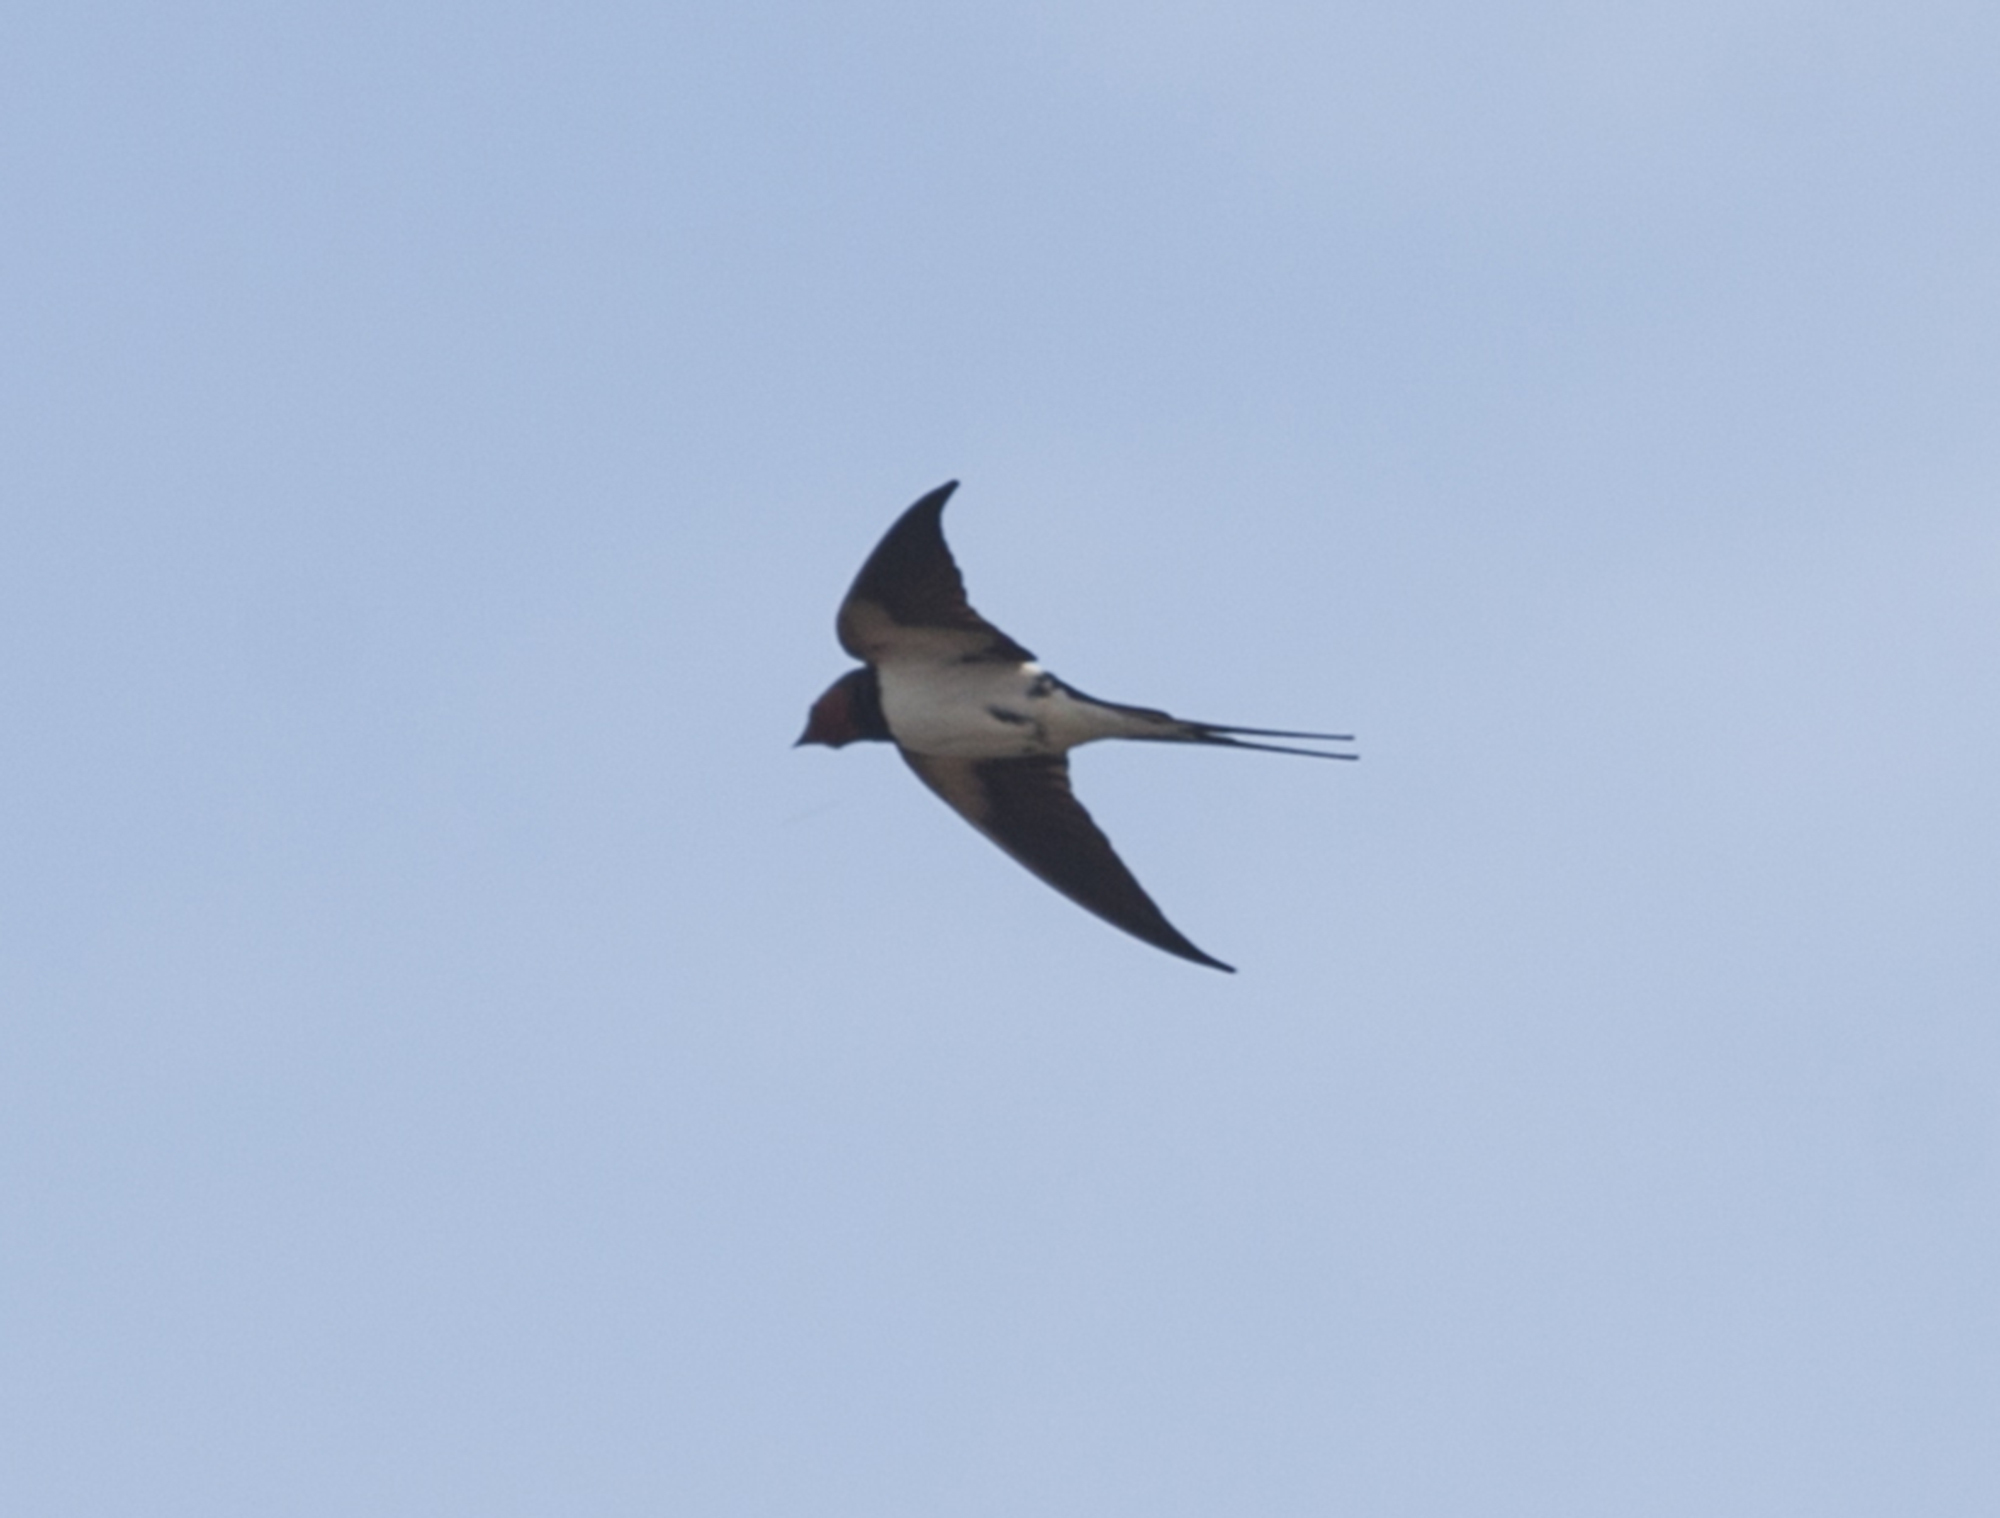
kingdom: Animalia
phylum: Chordata
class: Aves
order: Passeriformes
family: Hirundinidae
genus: Hirundo
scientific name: Hirundo rustica
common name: Barn swallow
